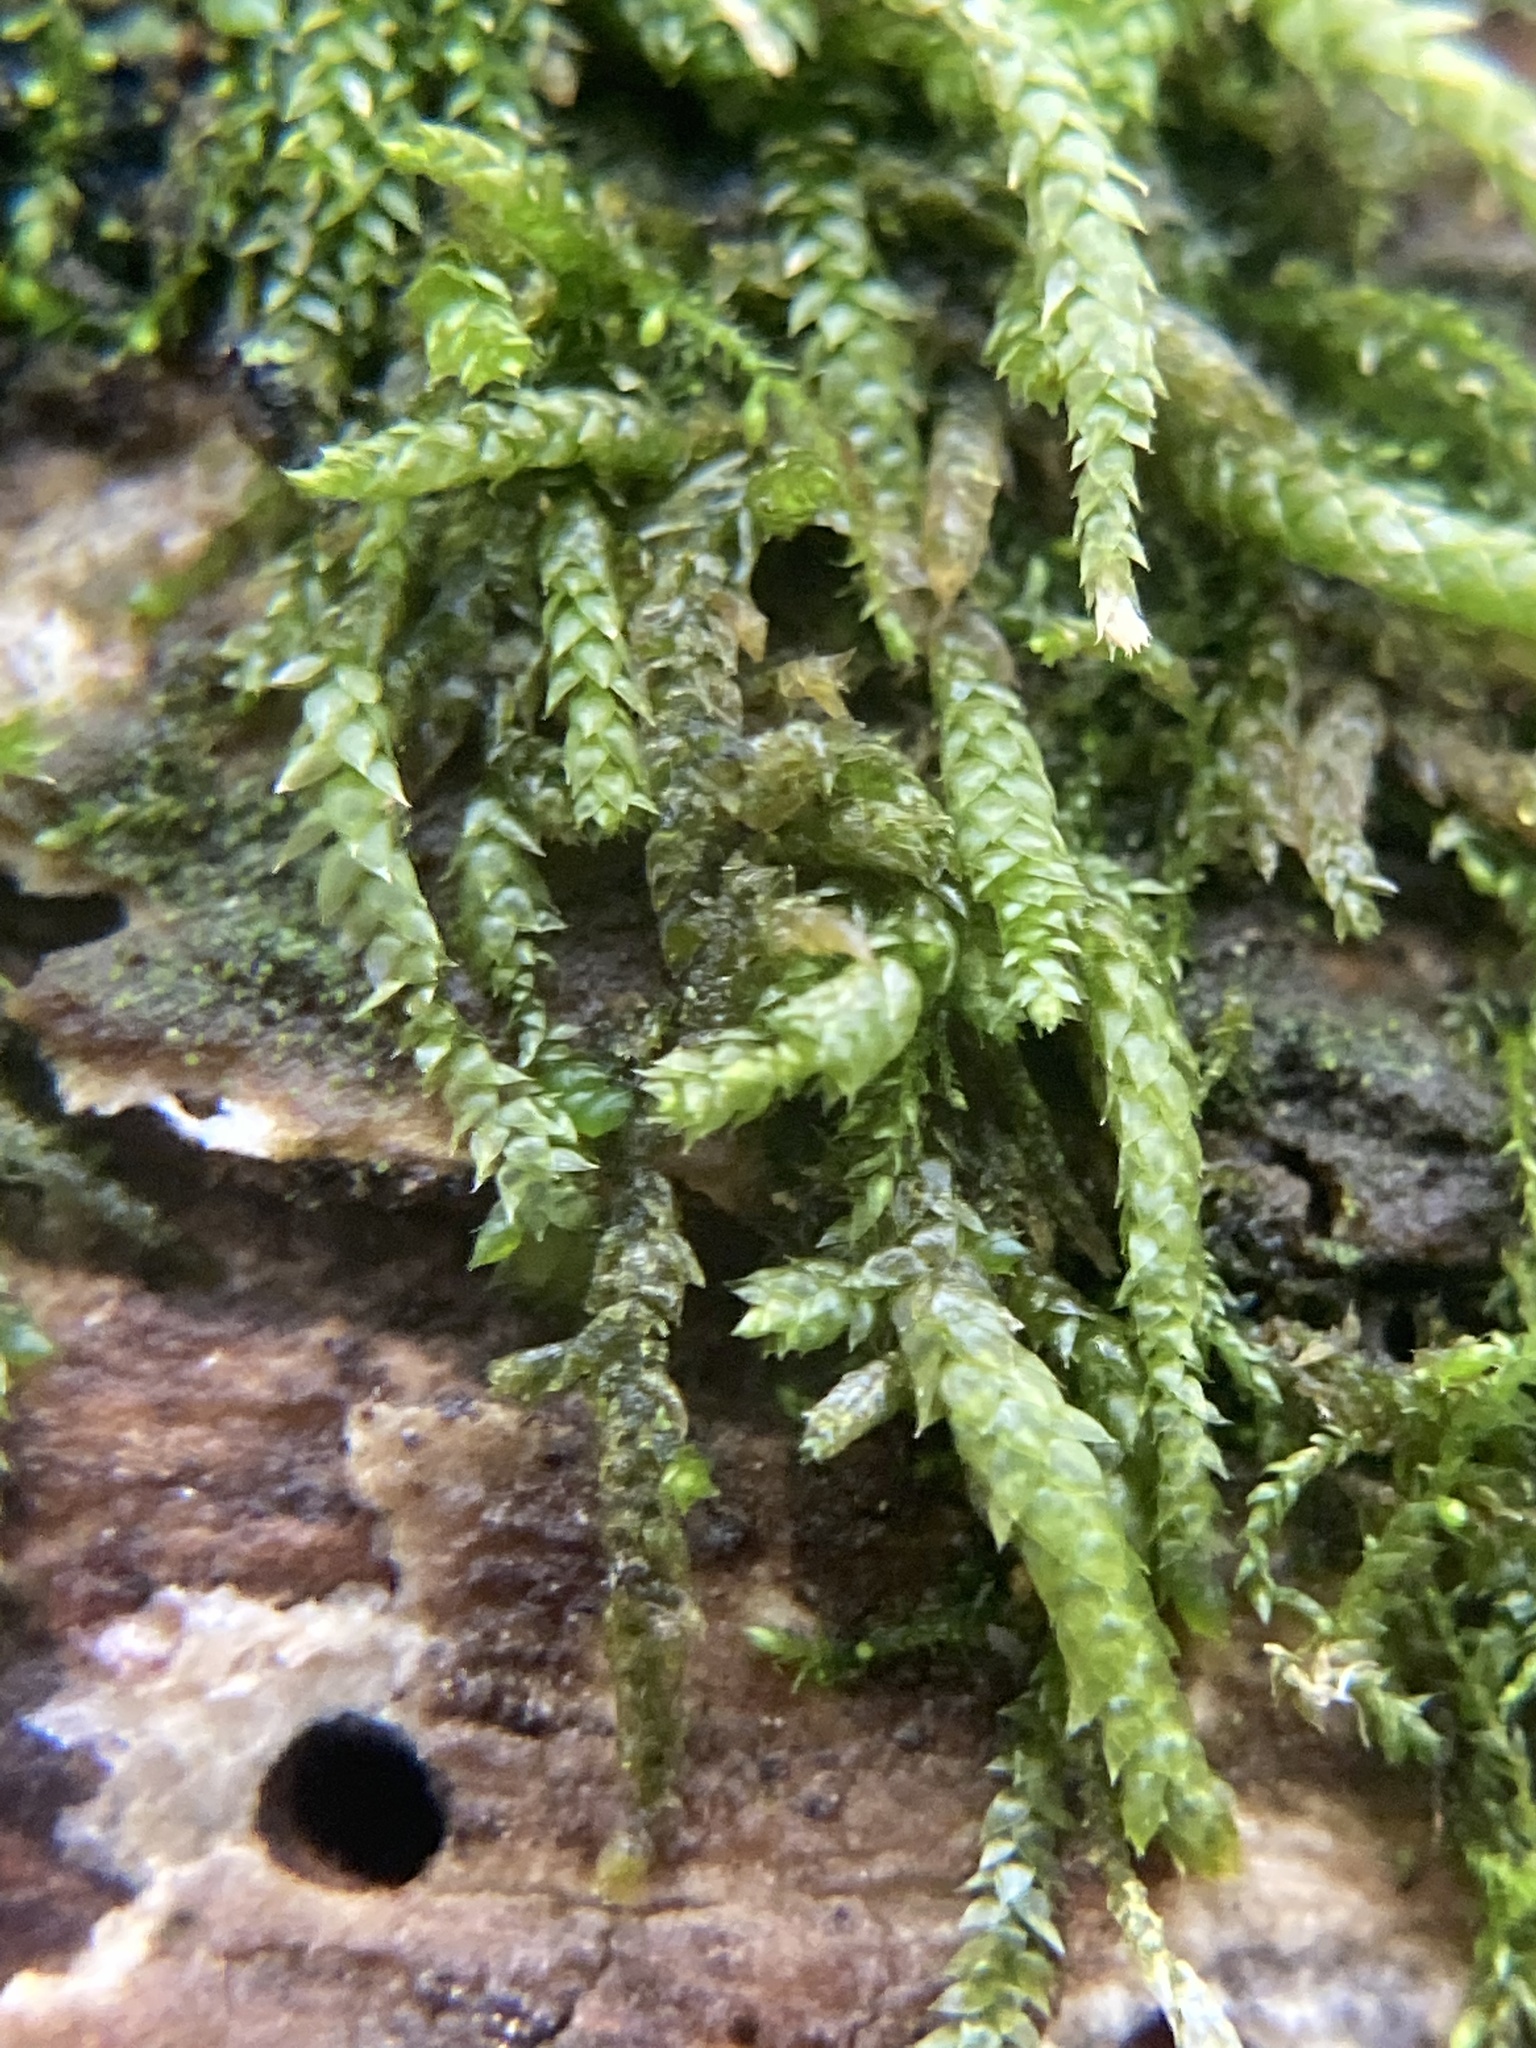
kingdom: Plantae
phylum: Bryophyta
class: Bryopsida
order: Hypnales
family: Brachytheciaceae
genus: Bryoandersonia
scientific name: Bryoandersonia illecebra
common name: Spoon-leaved moss
